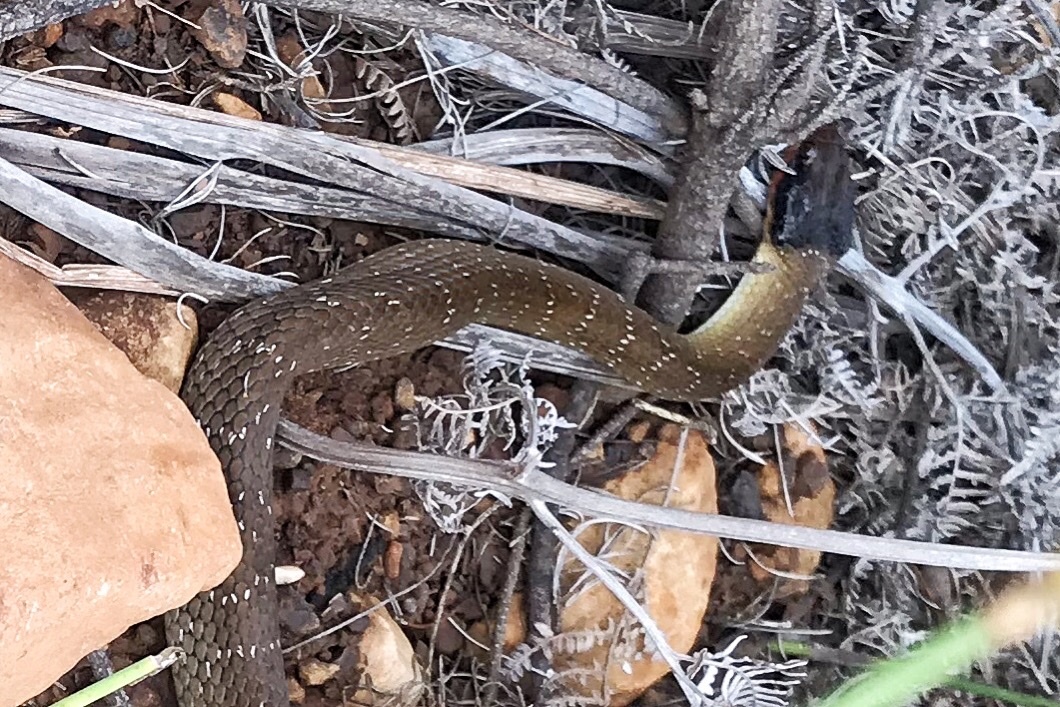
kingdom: Animalia
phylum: Chordata
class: Squamata
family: Colubridae
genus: Crotaphopeltis
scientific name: Crotaphopeltis hotamboeia
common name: Red-lipped snake
